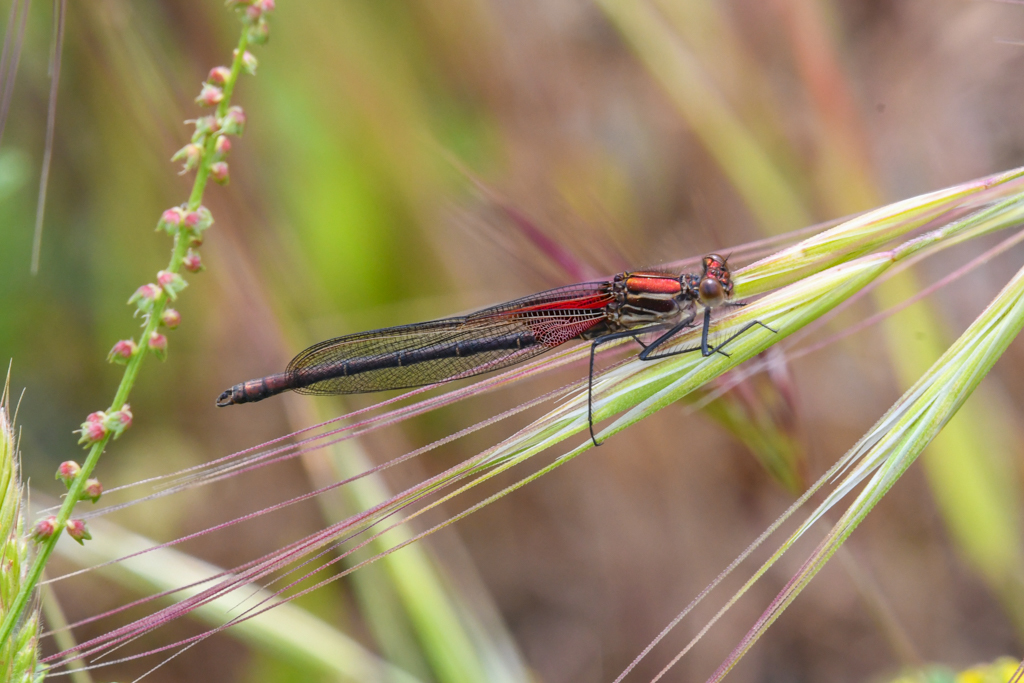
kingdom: Animalia
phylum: Arthropoda
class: Insecta
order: Odonata
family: Calopterygidae
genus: Hetaerina
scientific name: Hetaerina americana
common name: American rubyspot
